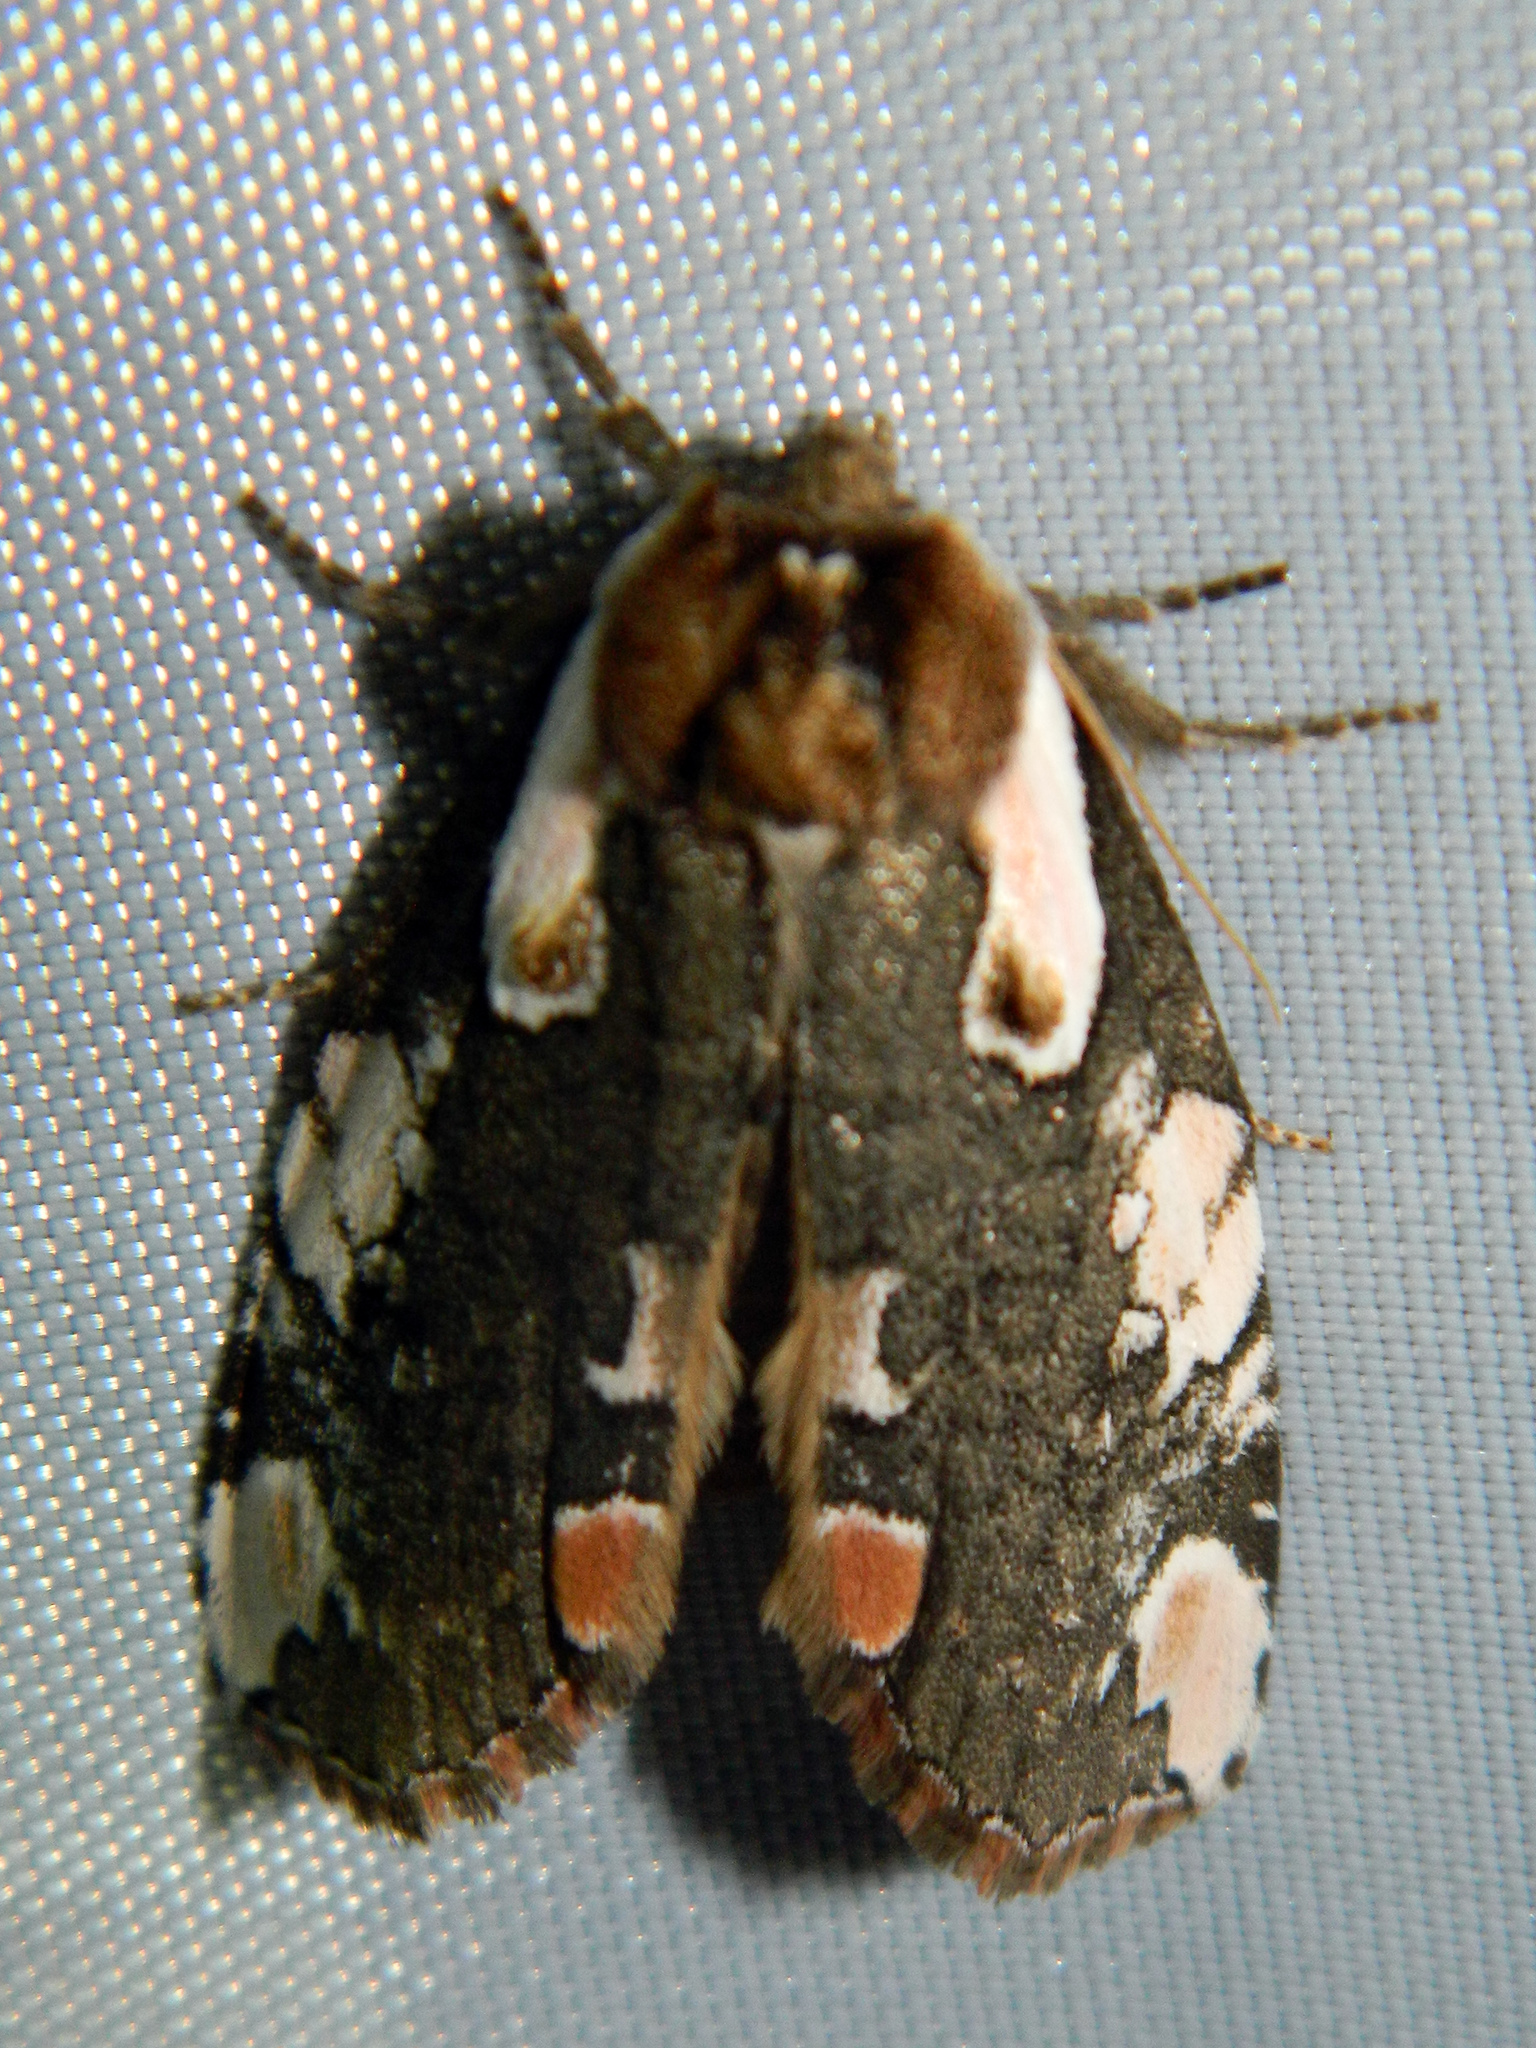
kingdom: Animalia
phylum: Arthropoda
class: Insecta
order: Lepidoptera
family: Drepanidae
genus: Euthyatira
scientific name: Euthyatira pudens
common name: Dogwood thyatirid moth
